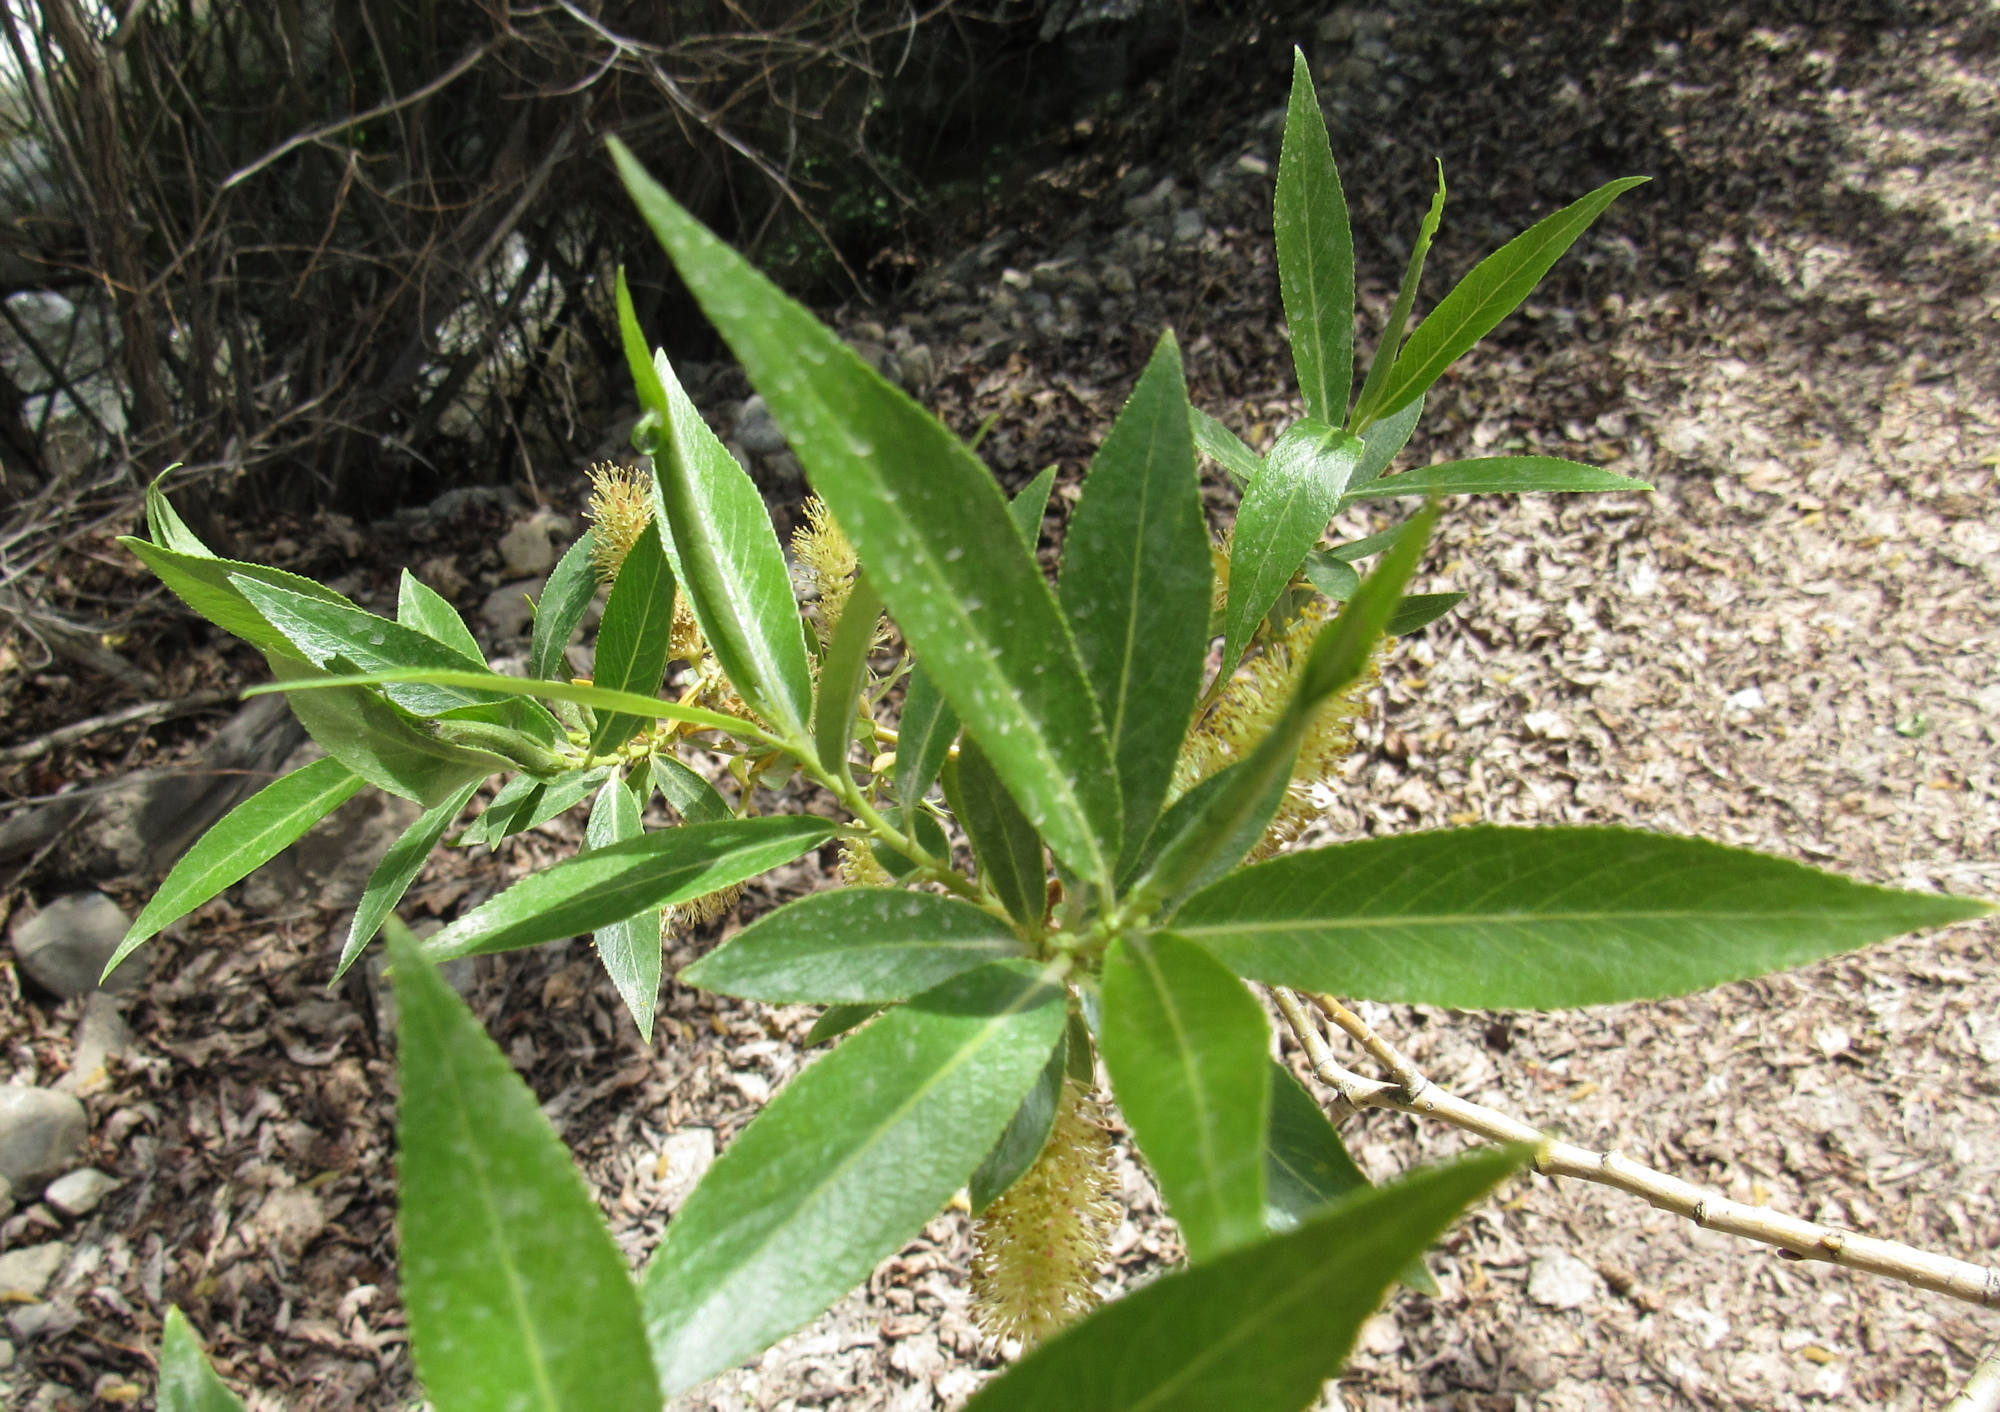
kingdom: Plantae
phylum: Tracheophyta
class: Magnoliopsida
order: Malpighiales
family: Salicaceae
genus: Salix
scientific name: Salix lucida
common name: Shining willow
